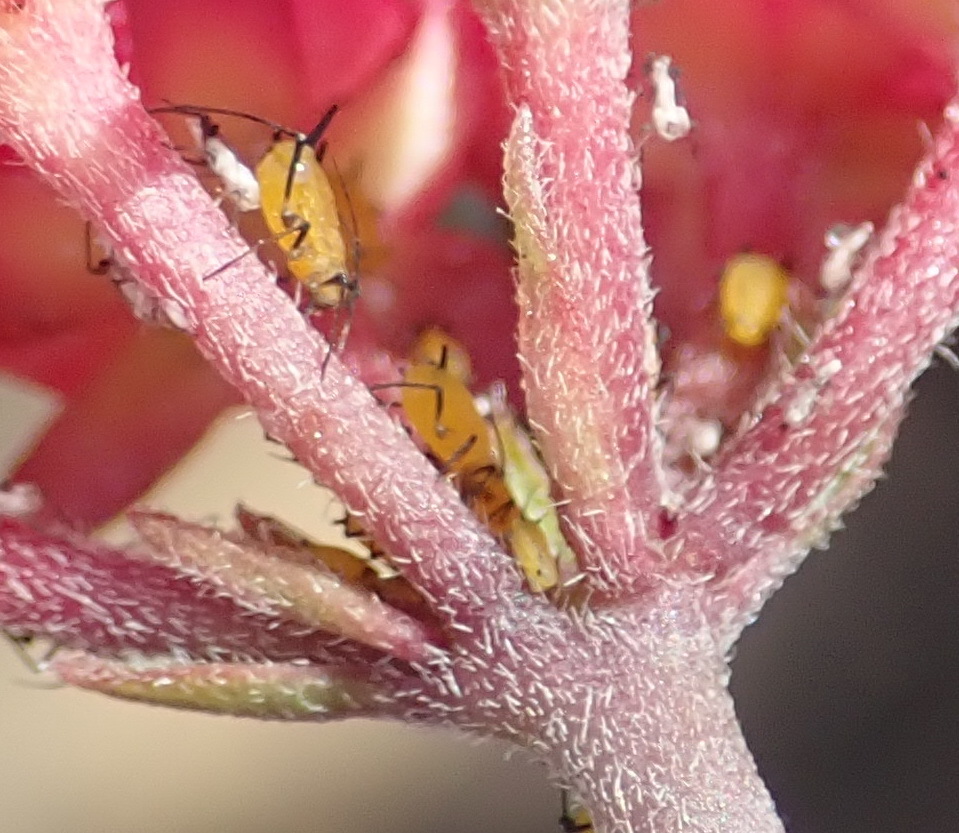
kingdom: Animalia
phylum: Arthropoda
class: Insecta
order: Hemiptera
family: Aphididae
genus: Aphis
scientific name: Aphis nerii
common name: Oleander aphid
